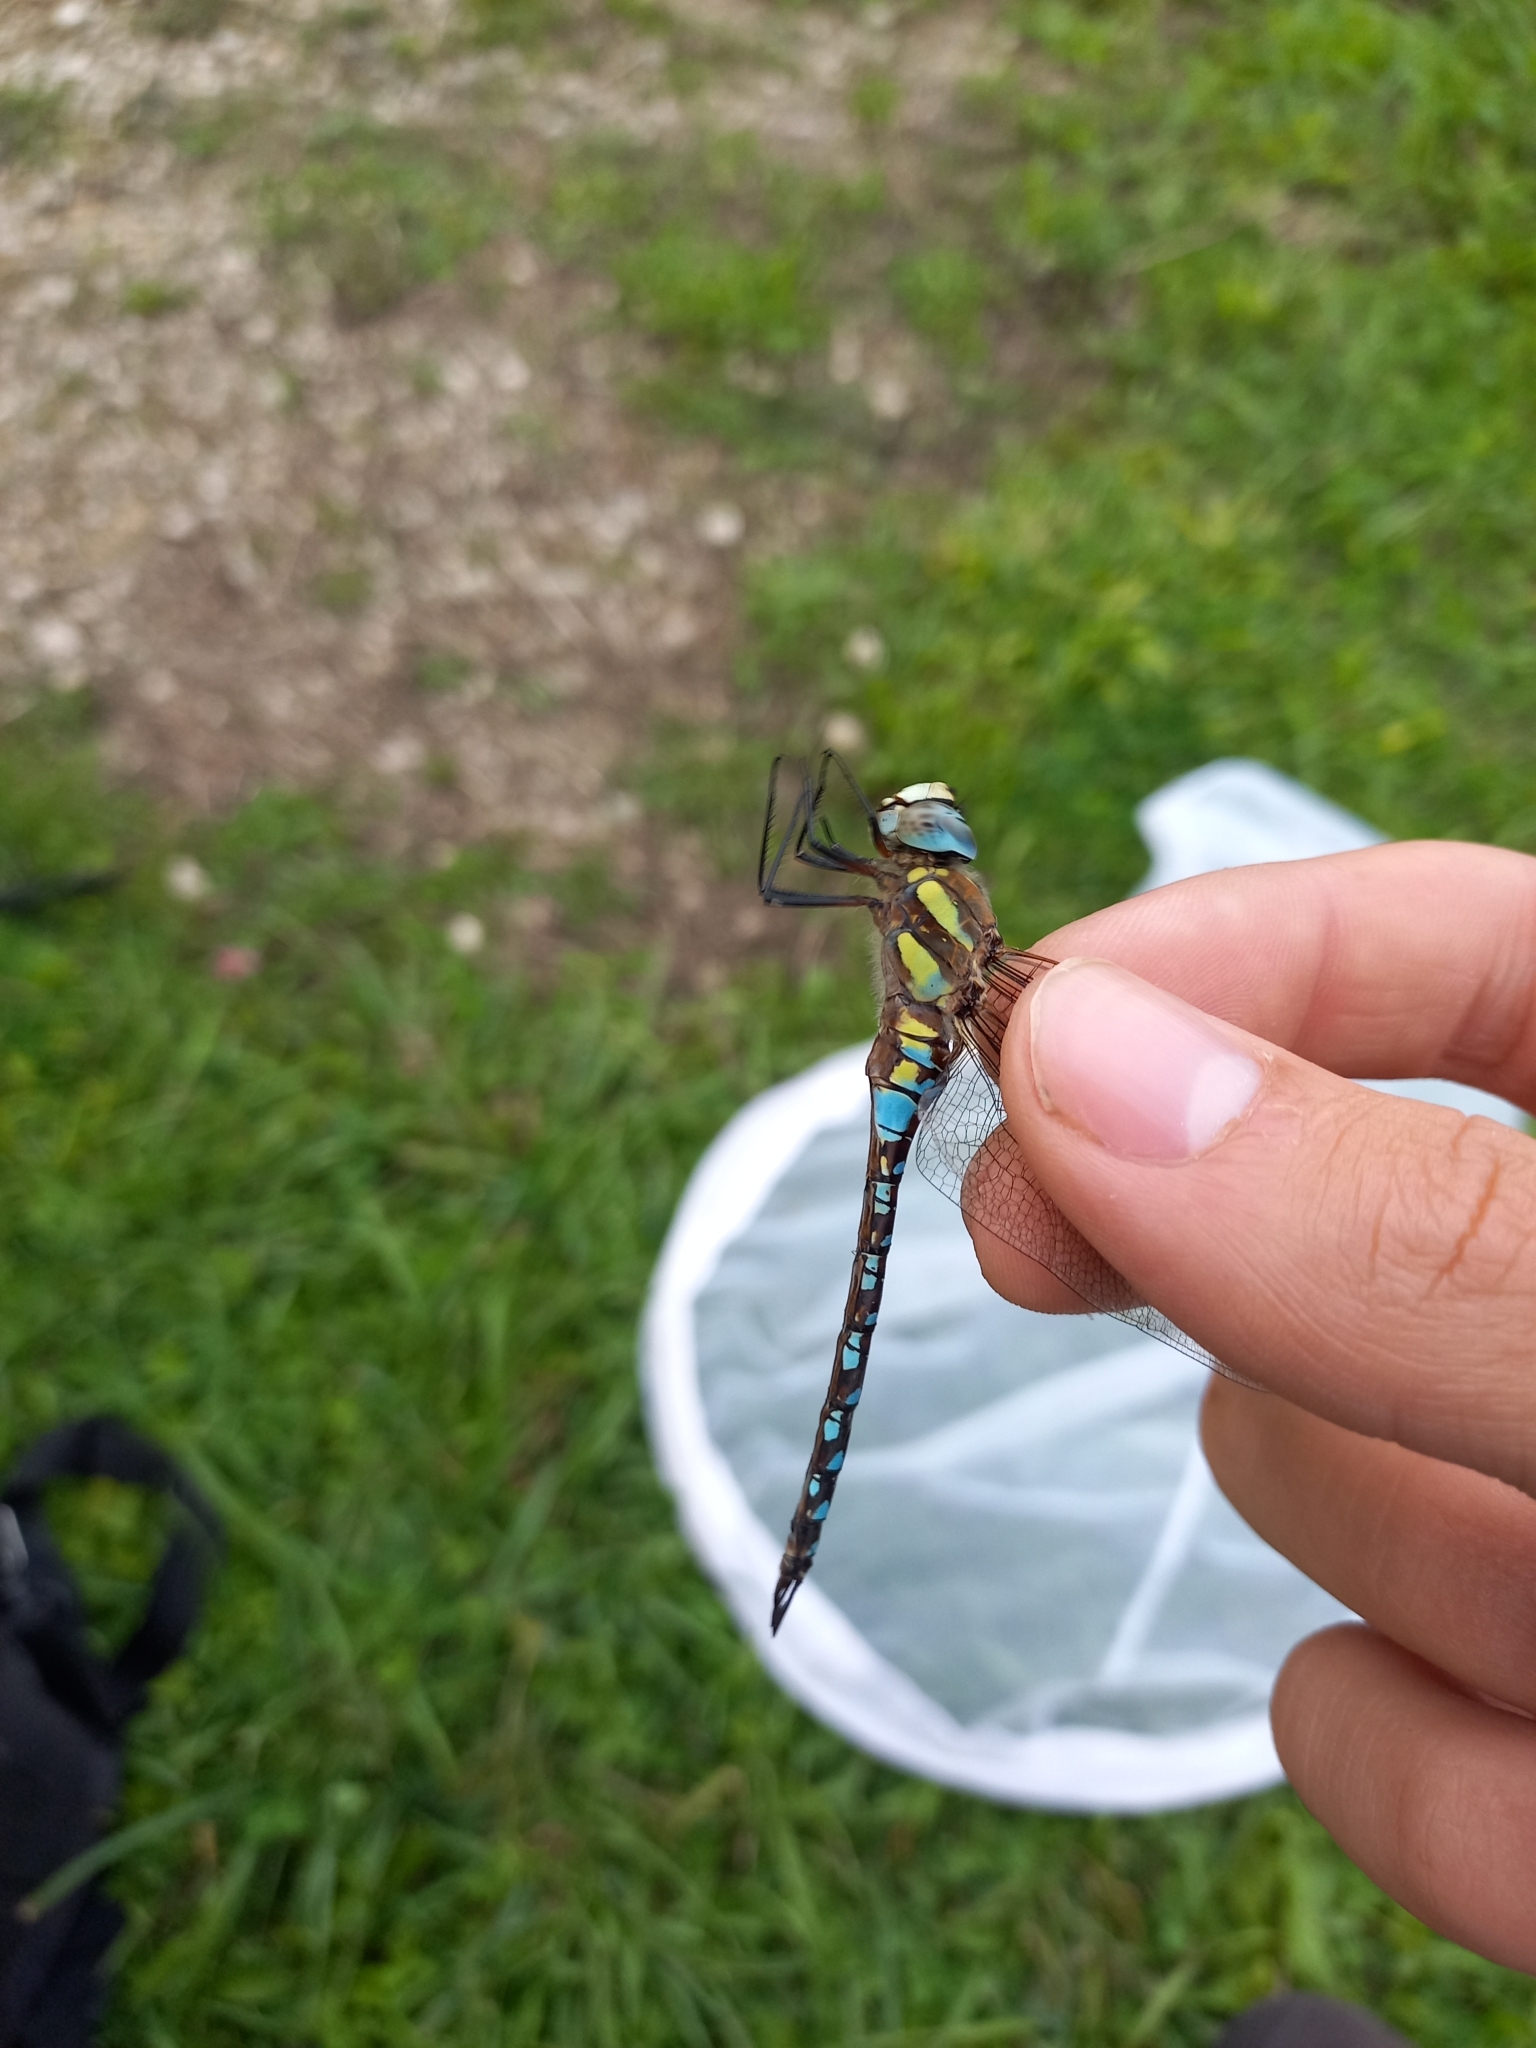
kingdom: Animalia
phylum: Arthropoda
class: Insecta
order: Odonata
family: Aeshnidae
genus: Aeshna
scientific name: Aeshna mixta
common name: Migrant hawker
